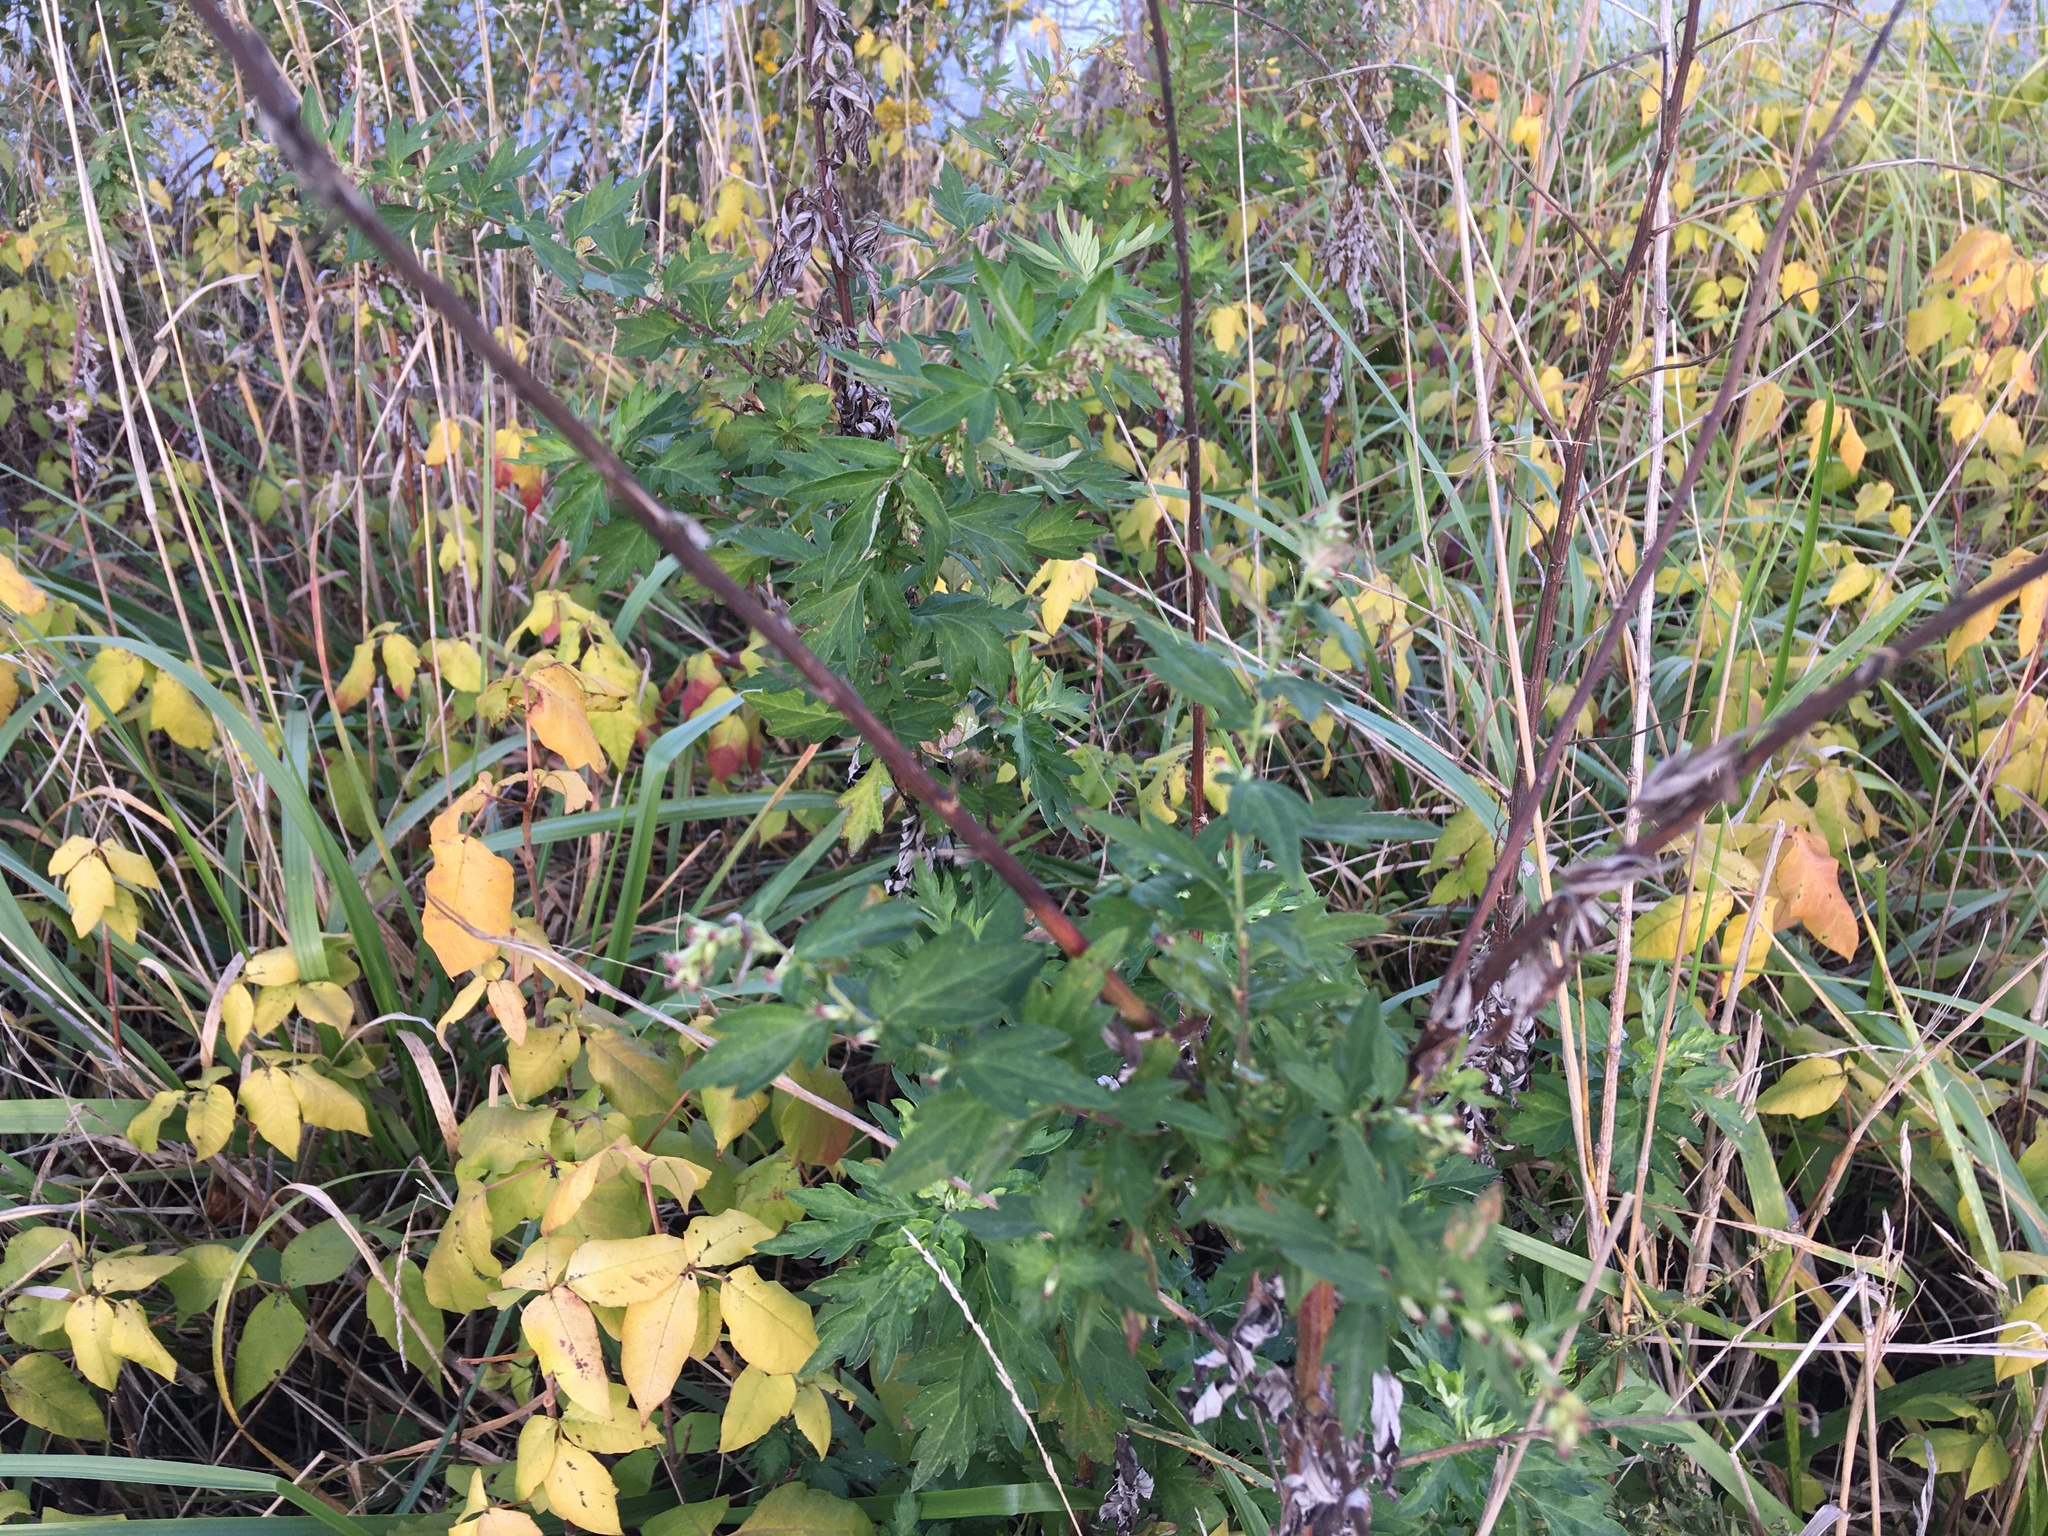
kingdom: Plantae
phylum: Tracheophyta
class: Magnoliopsida
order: Asterales
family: Asteraceae
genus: Artemisia
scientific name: Artemisia vulgaris
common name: Mugwort
